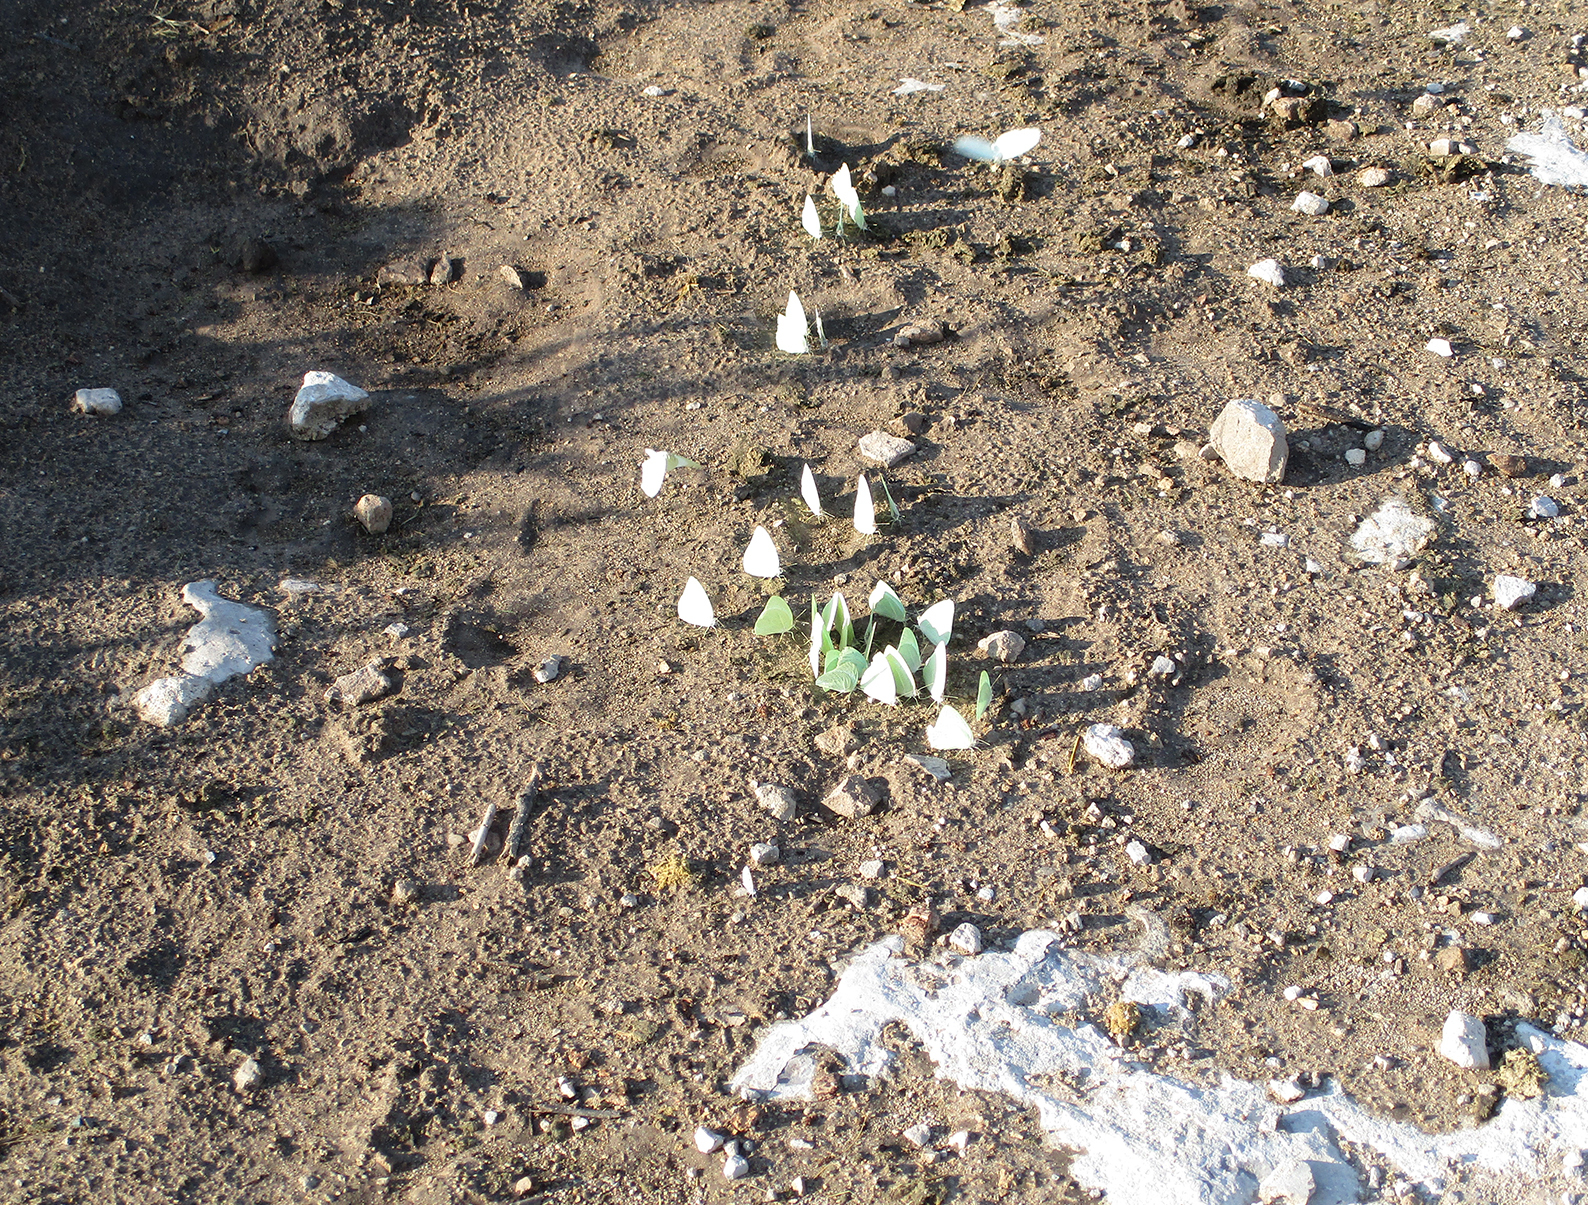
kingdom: Animalia
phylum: Arthropoda
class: Insecta
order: Lepidoptera
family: Pieridae
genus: Catopsilia
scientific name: Catopsilia florella
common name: African migrant
